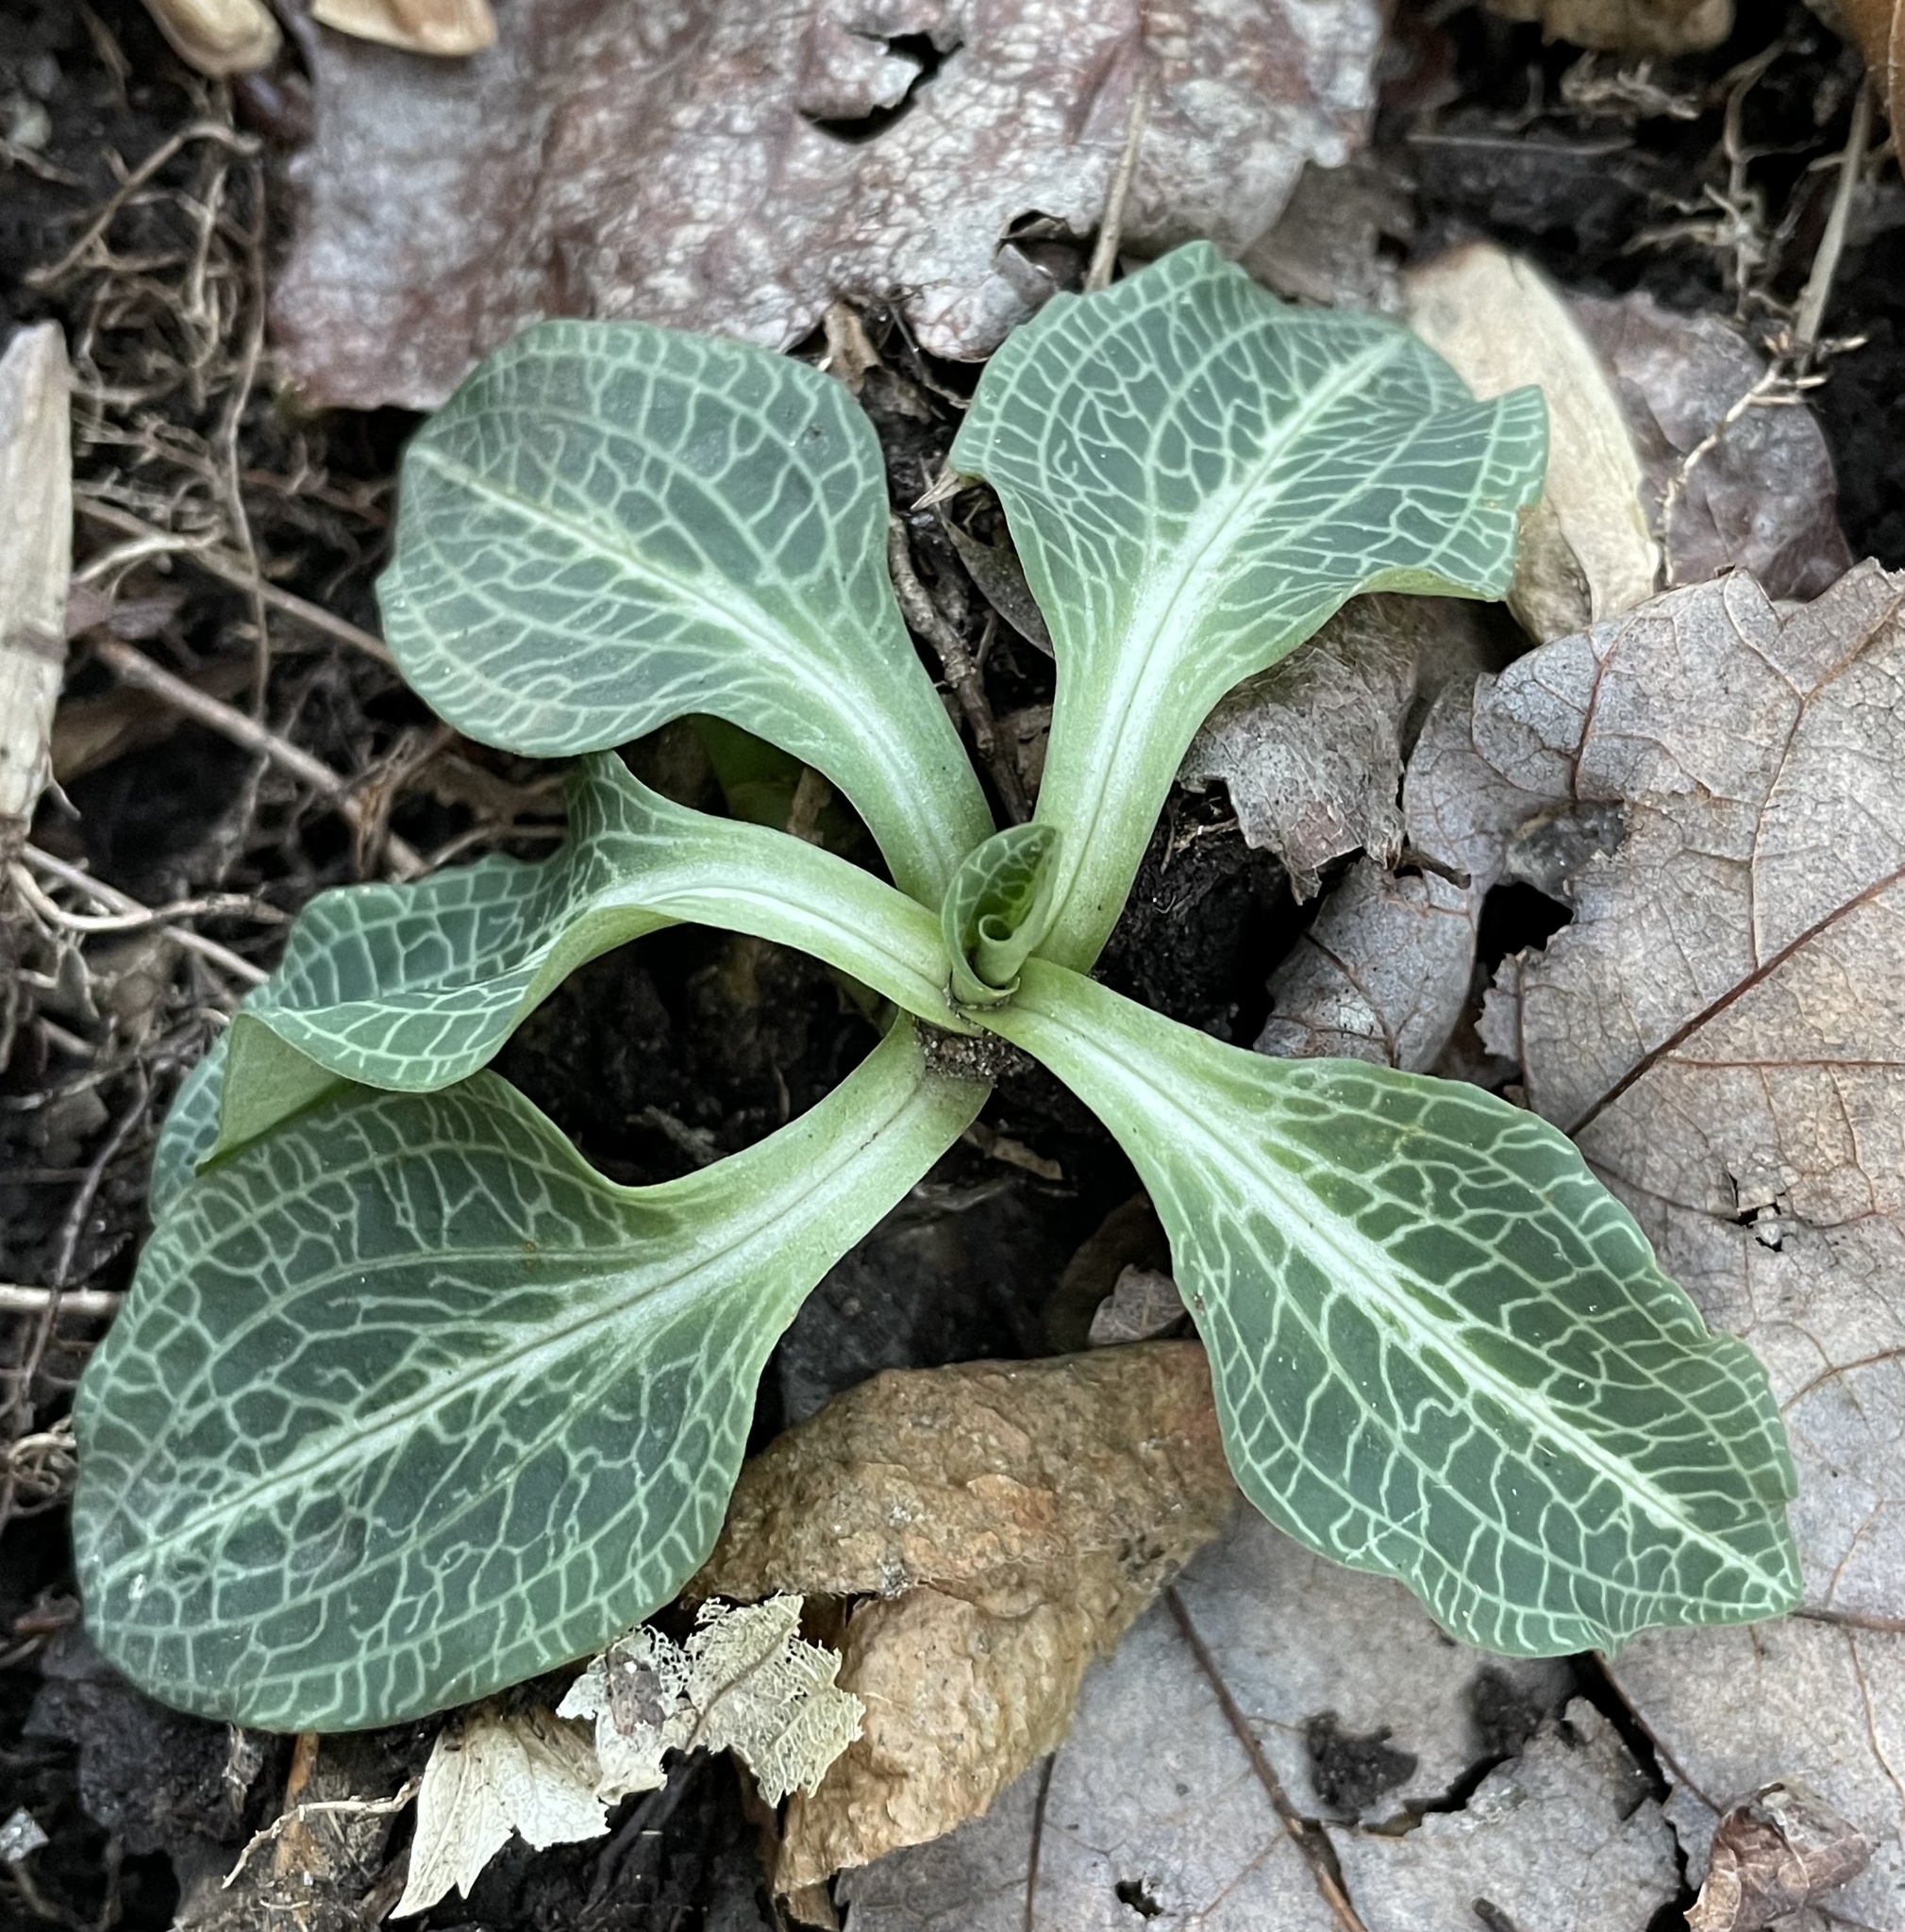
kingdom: Plantae
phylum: Tracheophyta
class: Liliopsida
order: Asparagales
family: Orchidaceae
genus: Goodyera
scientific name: Goodyera pubescens
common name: Downy rattlesnake-plantain
